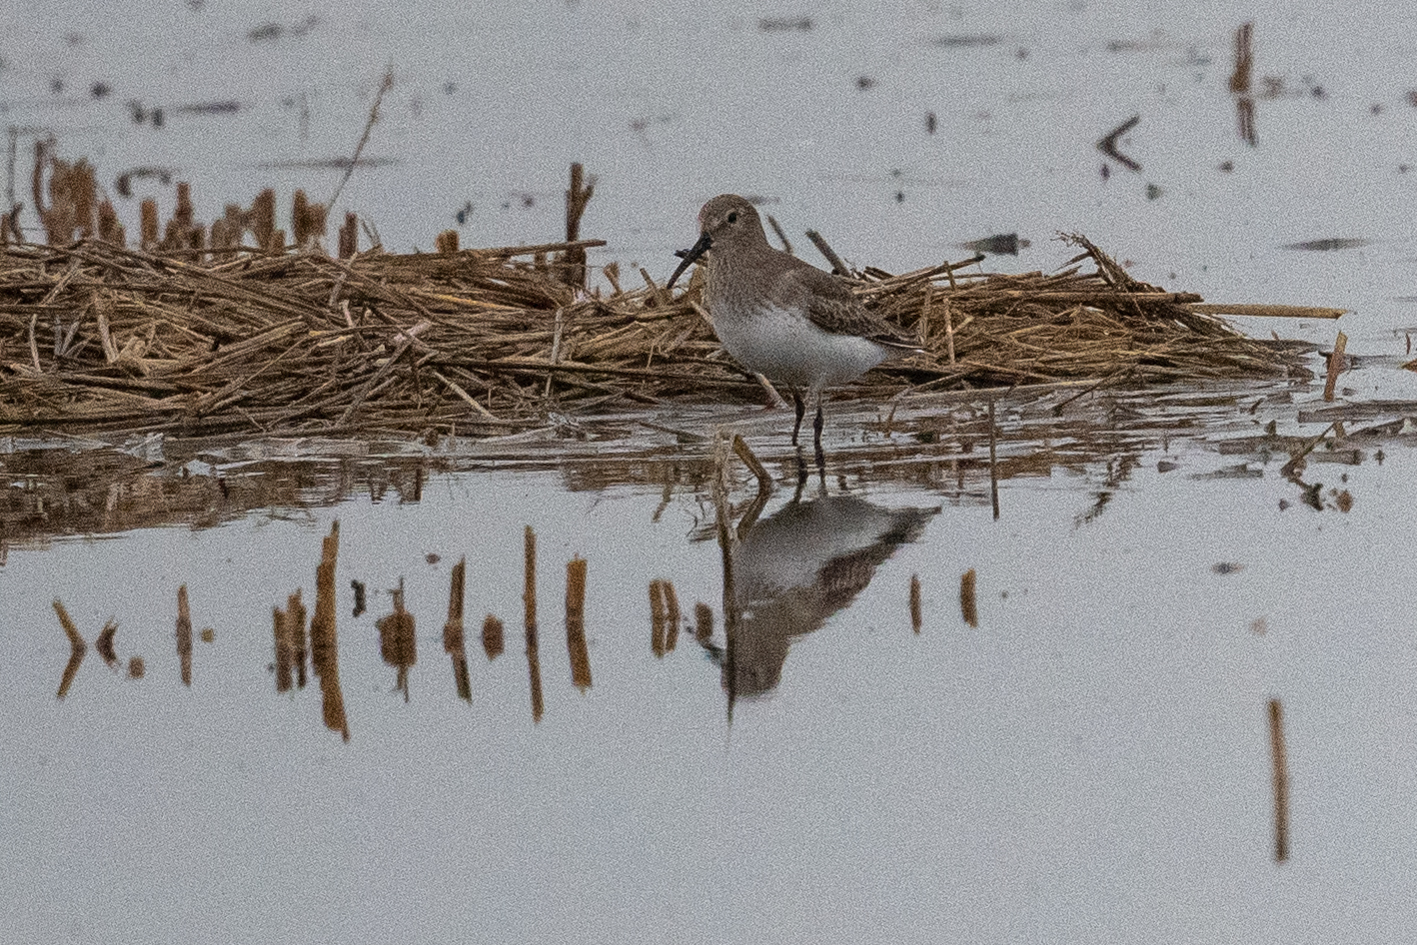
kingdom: Animalia
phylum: Chordata
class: Aves
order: Charadriiformes
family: Scolopacidae
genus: Calidris
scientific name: Calidris alpina
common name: Dunlin
